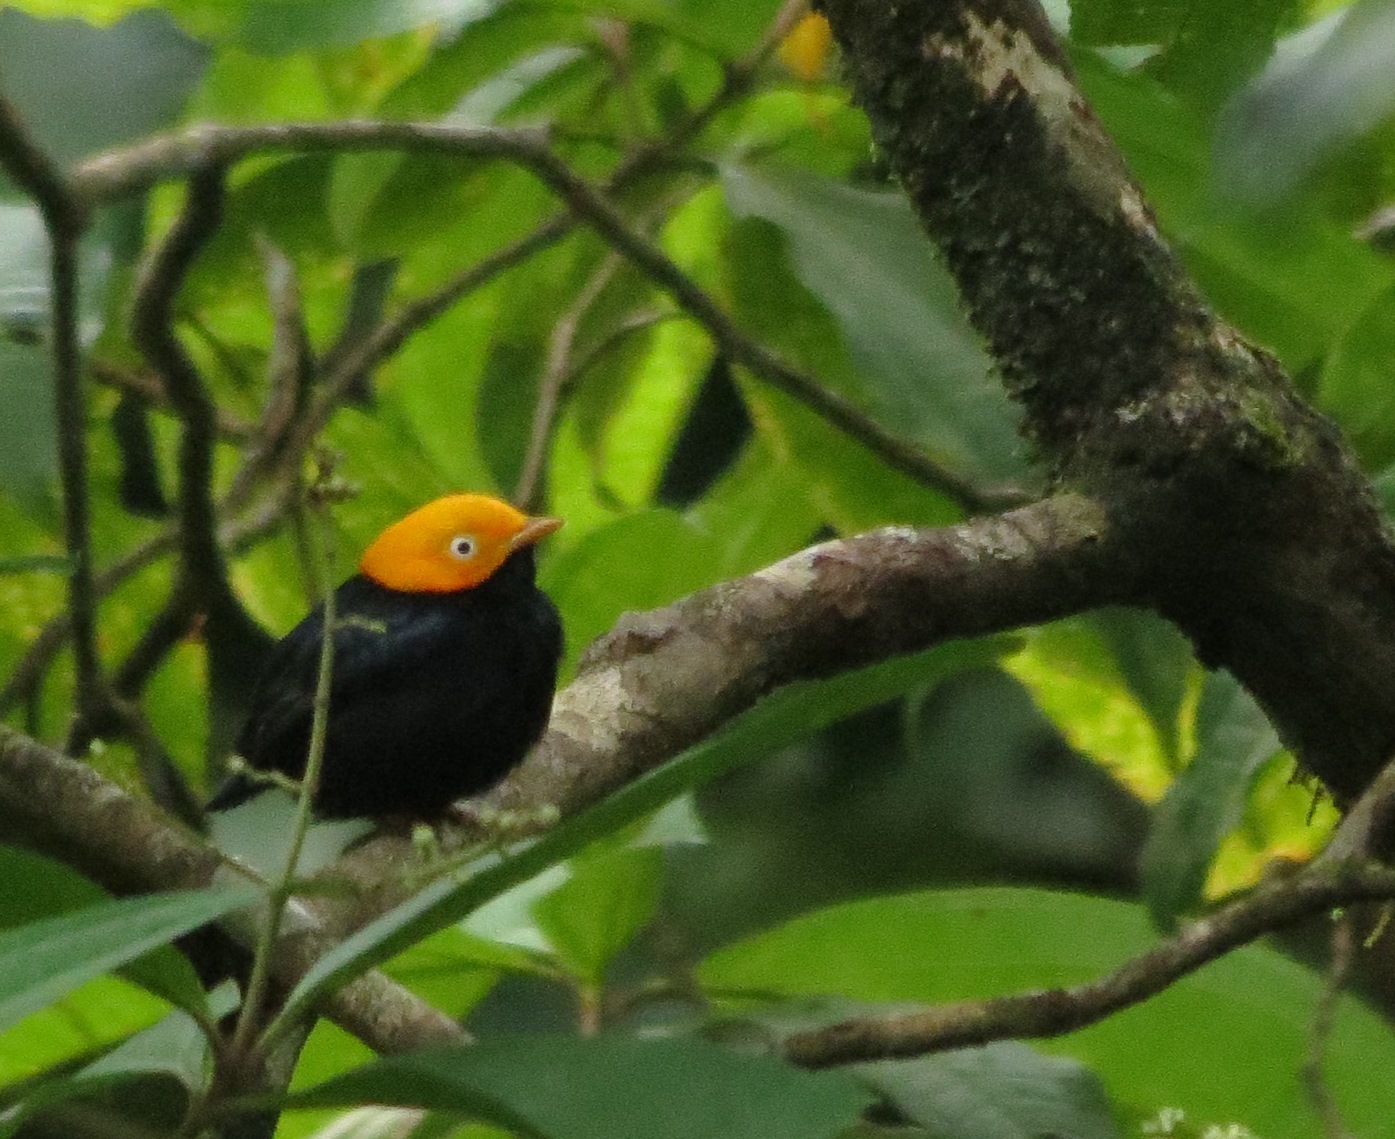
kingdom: Animalia
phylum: Chordata
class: Aves
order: Passeriformes
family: Pipridae
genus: Pipra
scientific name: Pipra erythrocephala
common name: Golden-headed manakin
